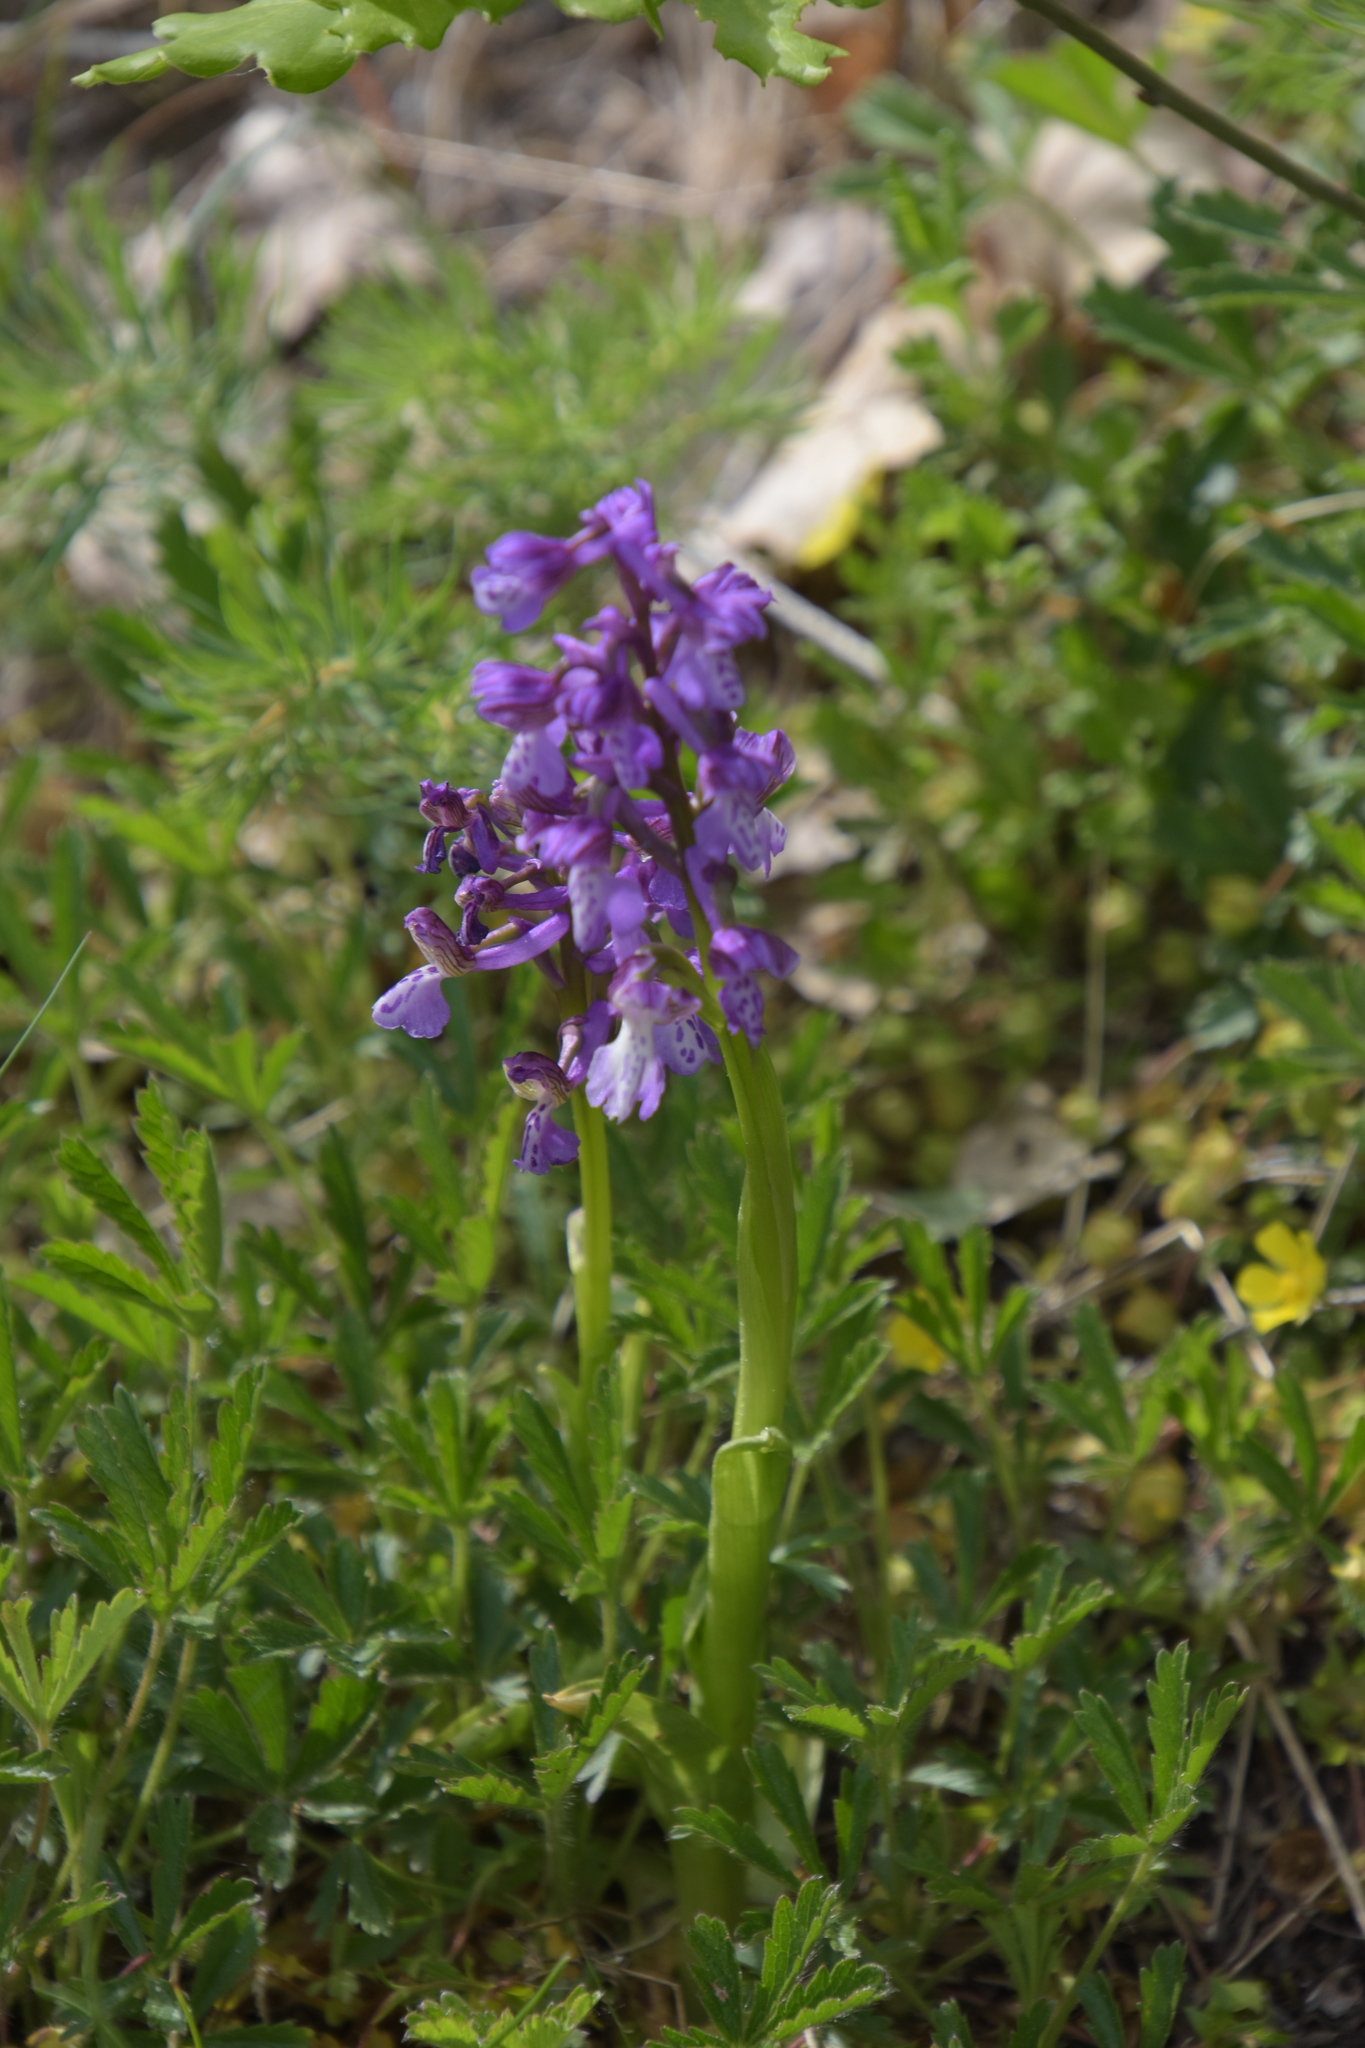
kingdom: Plantae
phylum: Tracheophyta
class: Liliopsida
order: Asparagales
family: Orchidaceae
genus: Anacamptis
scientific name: Anacamptis morio
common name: Green-winged orchid
